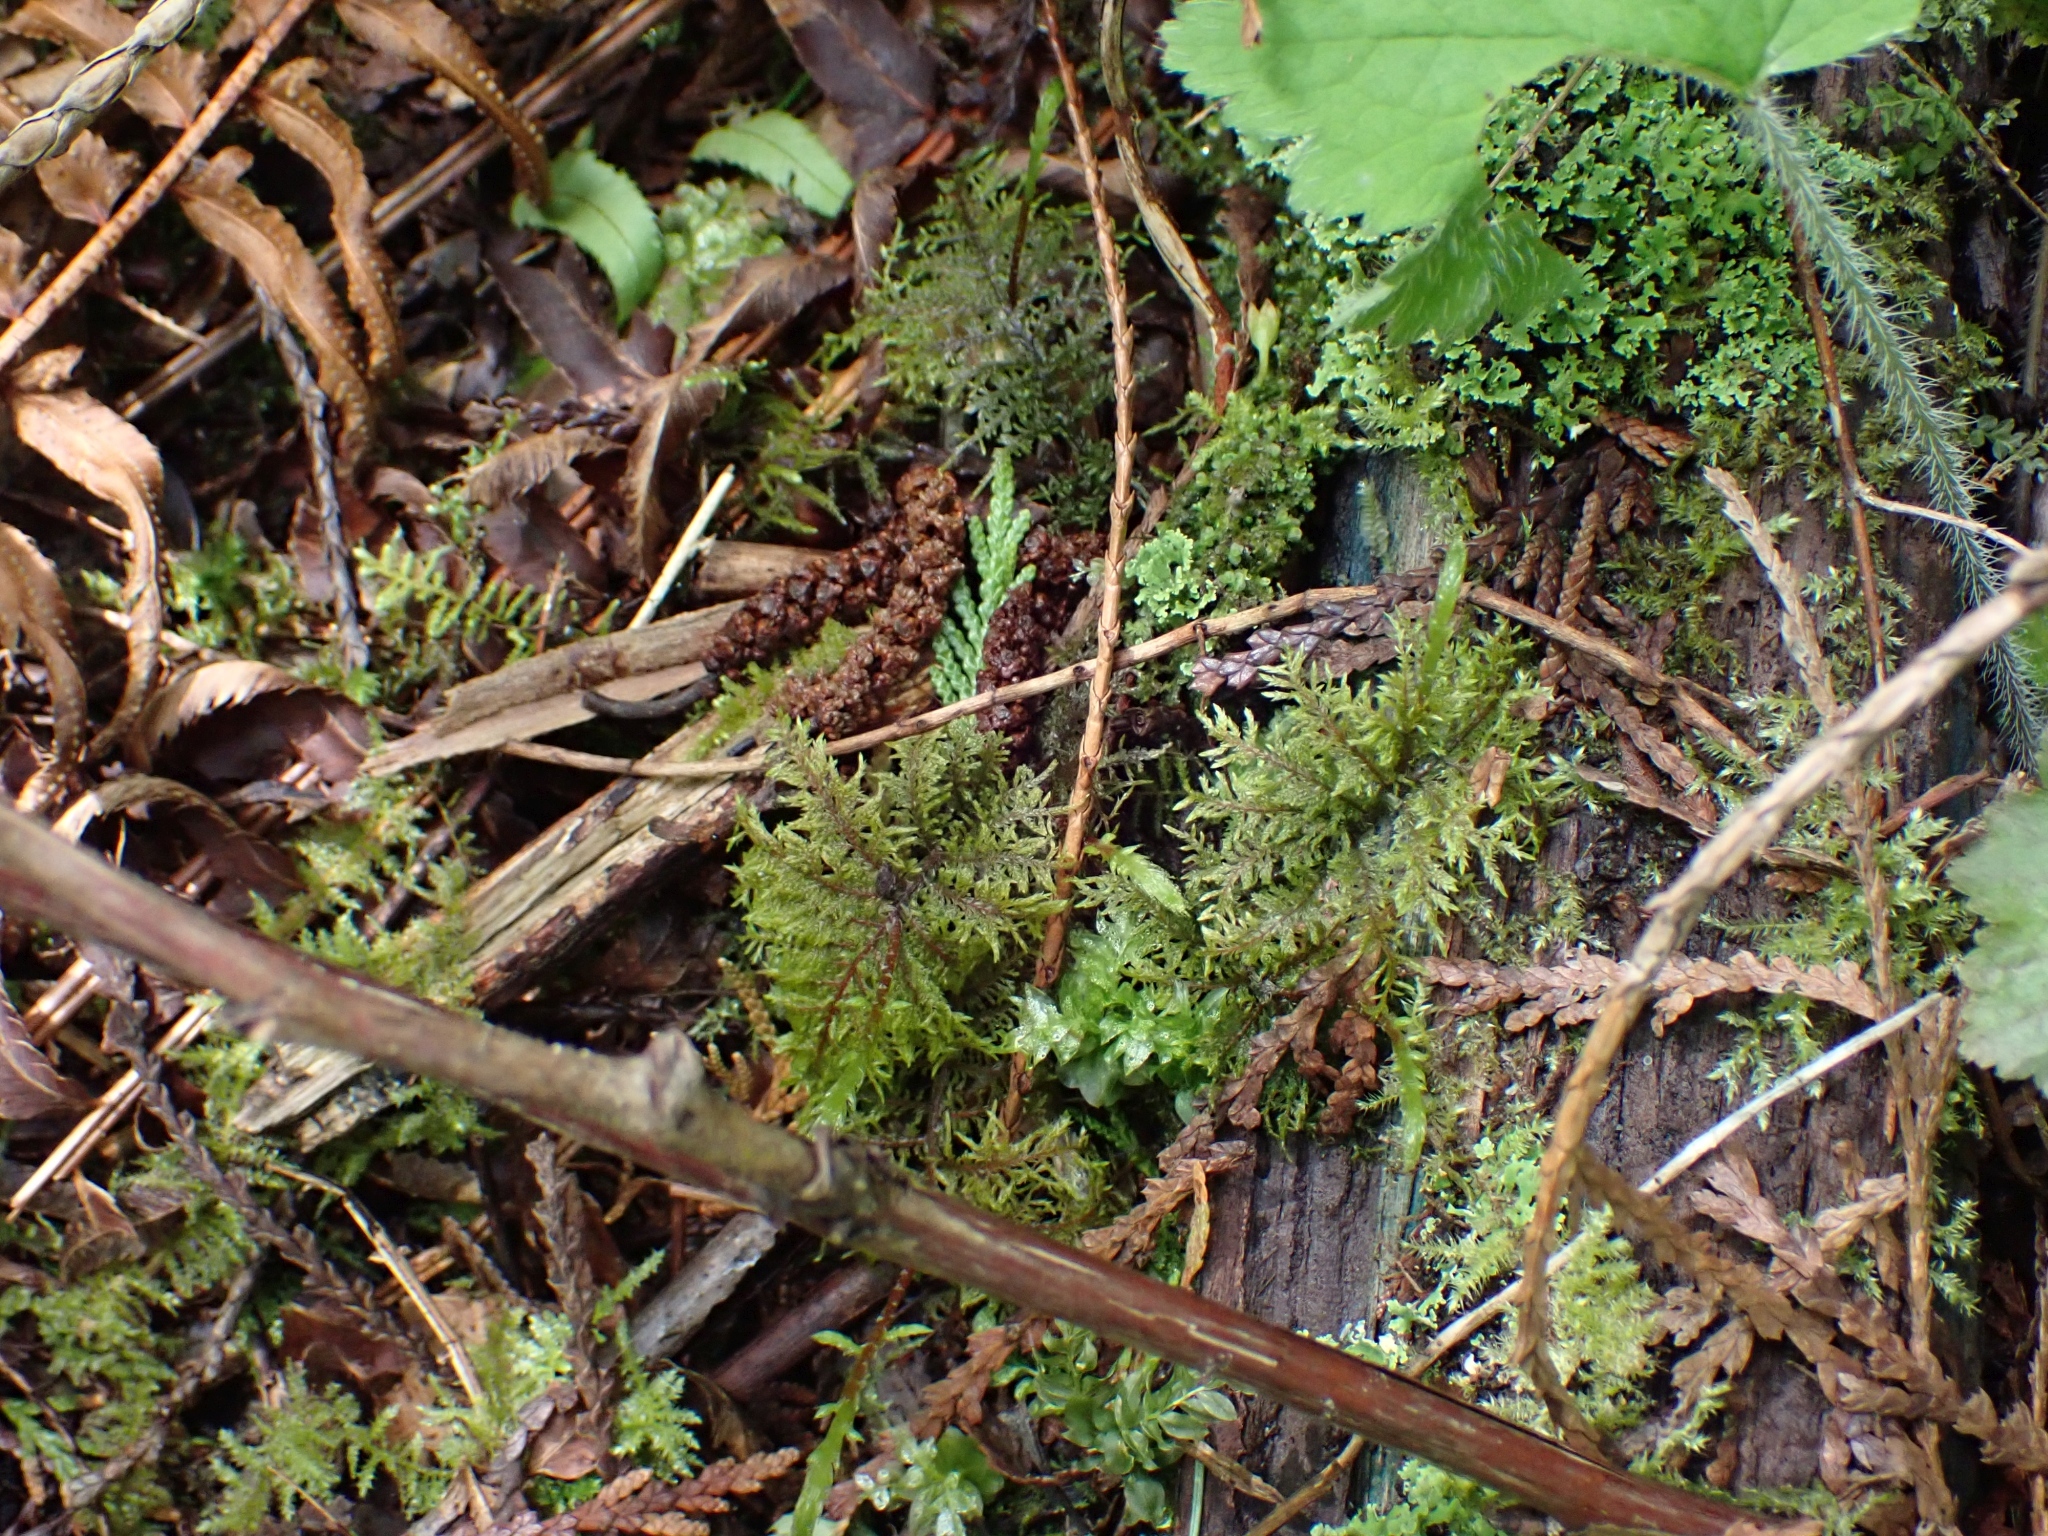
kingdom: Plantae
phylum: Bryophyta
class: Bryopsida
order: Hypnales
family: Hylocomiaceae
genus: Hylocomium
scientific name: Hylocomium splendens
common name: Stairstep moss
